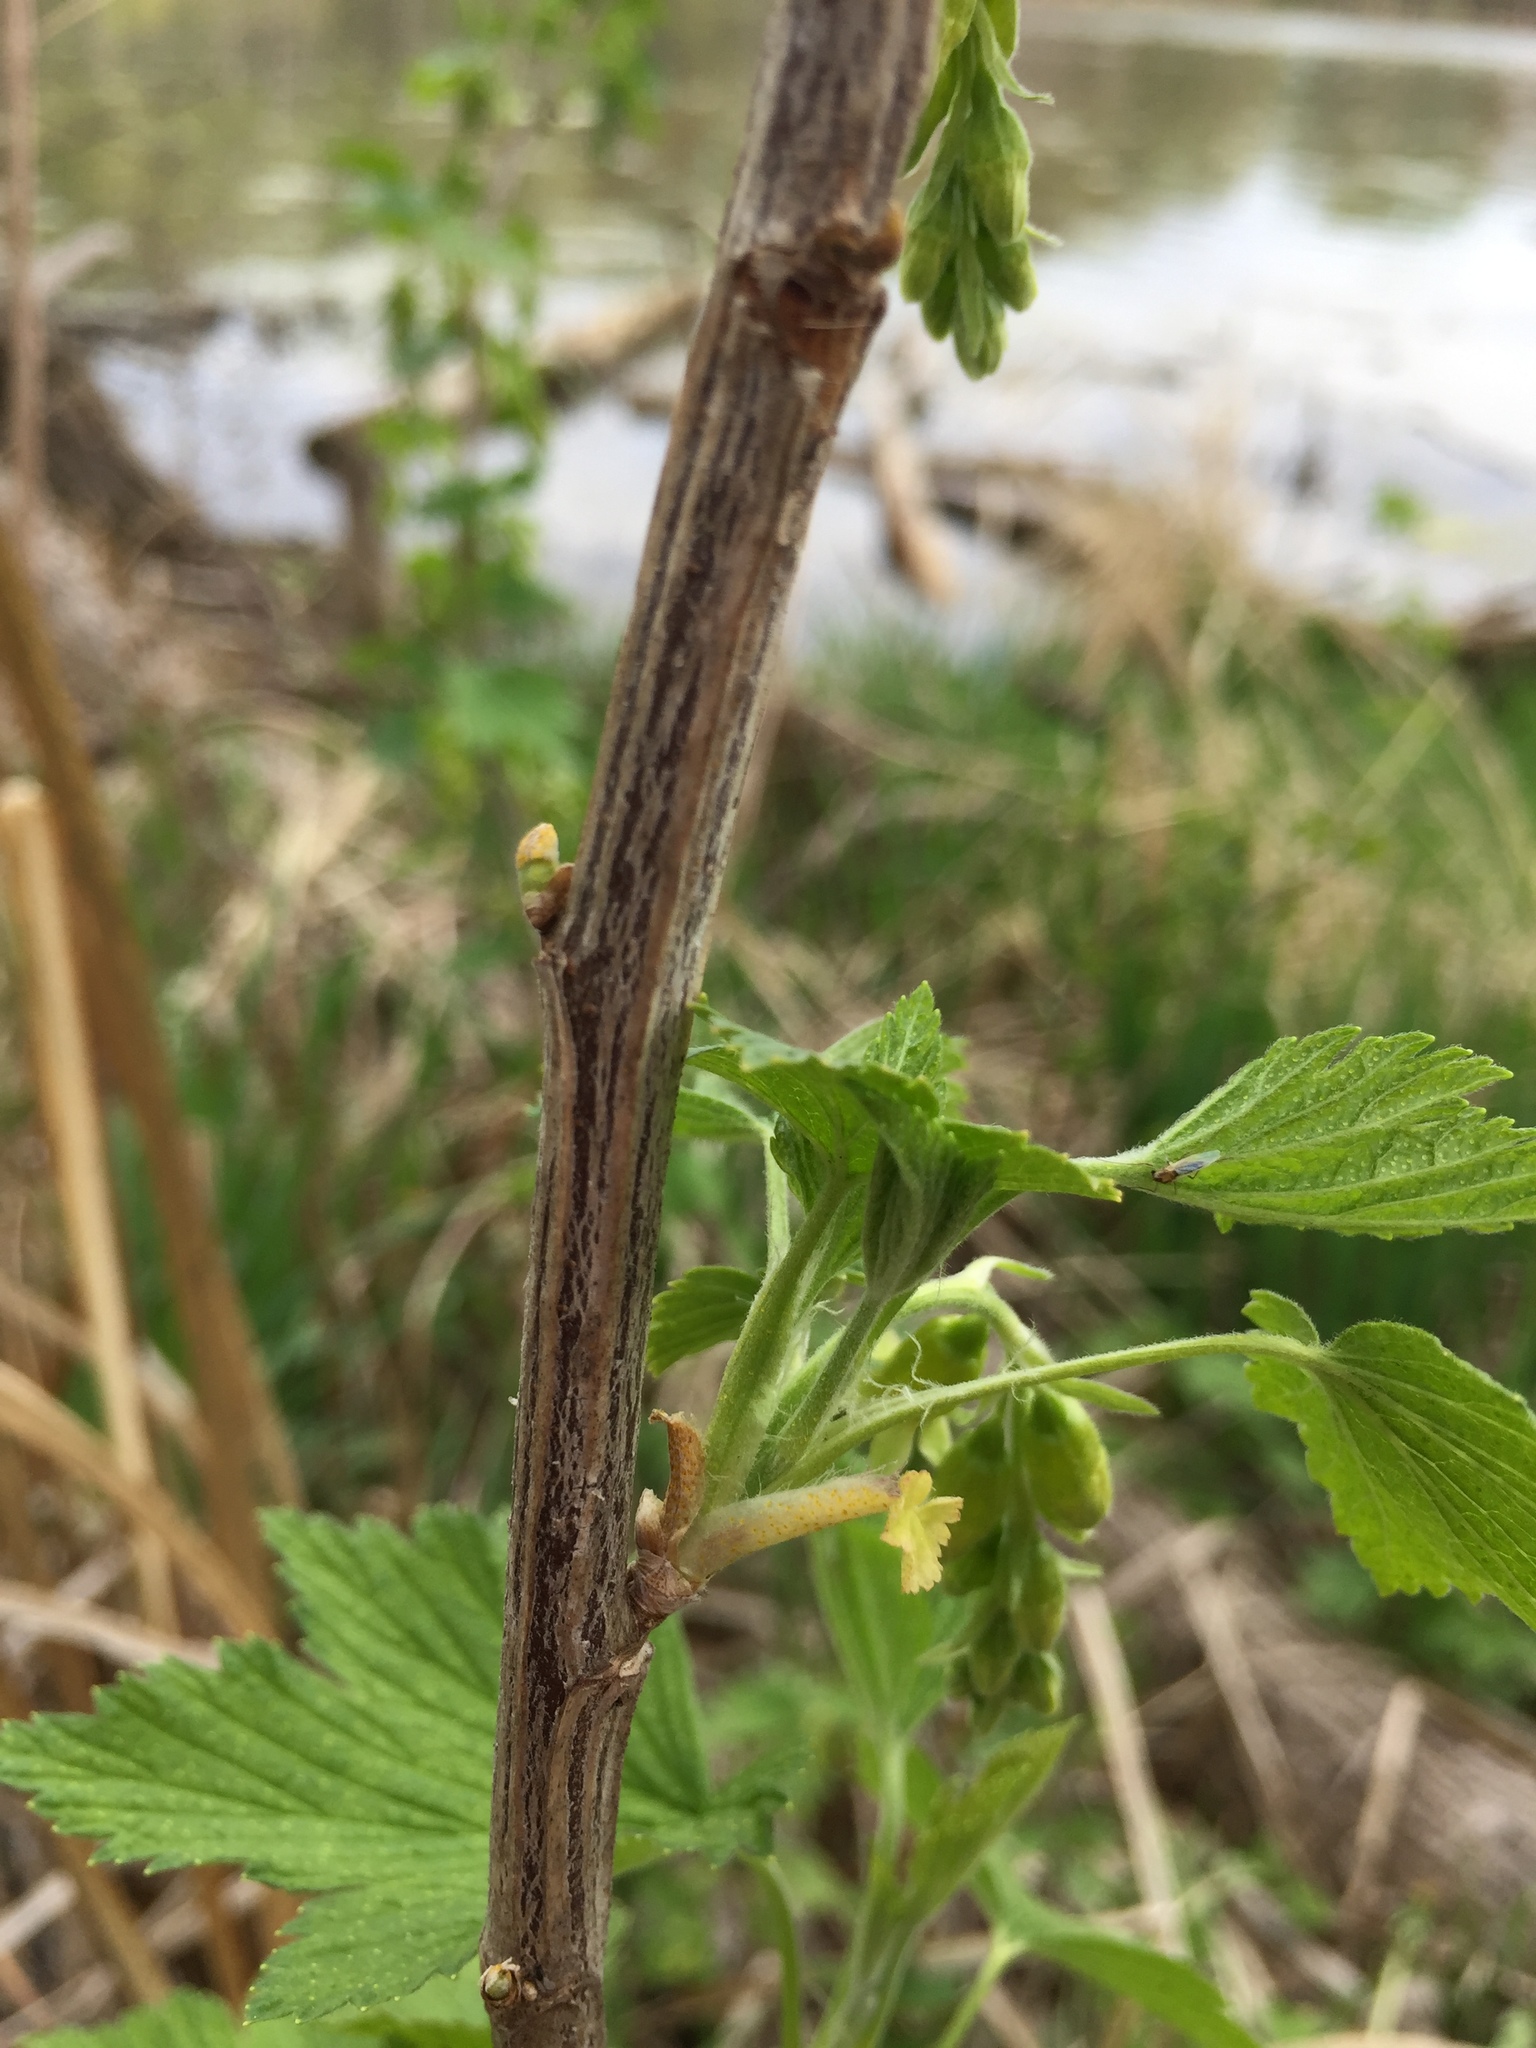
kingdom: Plantae
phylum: Tracheophyta
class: Magnoliopsida
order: Saxifragales
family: Grossulariaceae
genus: Ribes
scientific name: Ribes americanum
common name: American black currant
